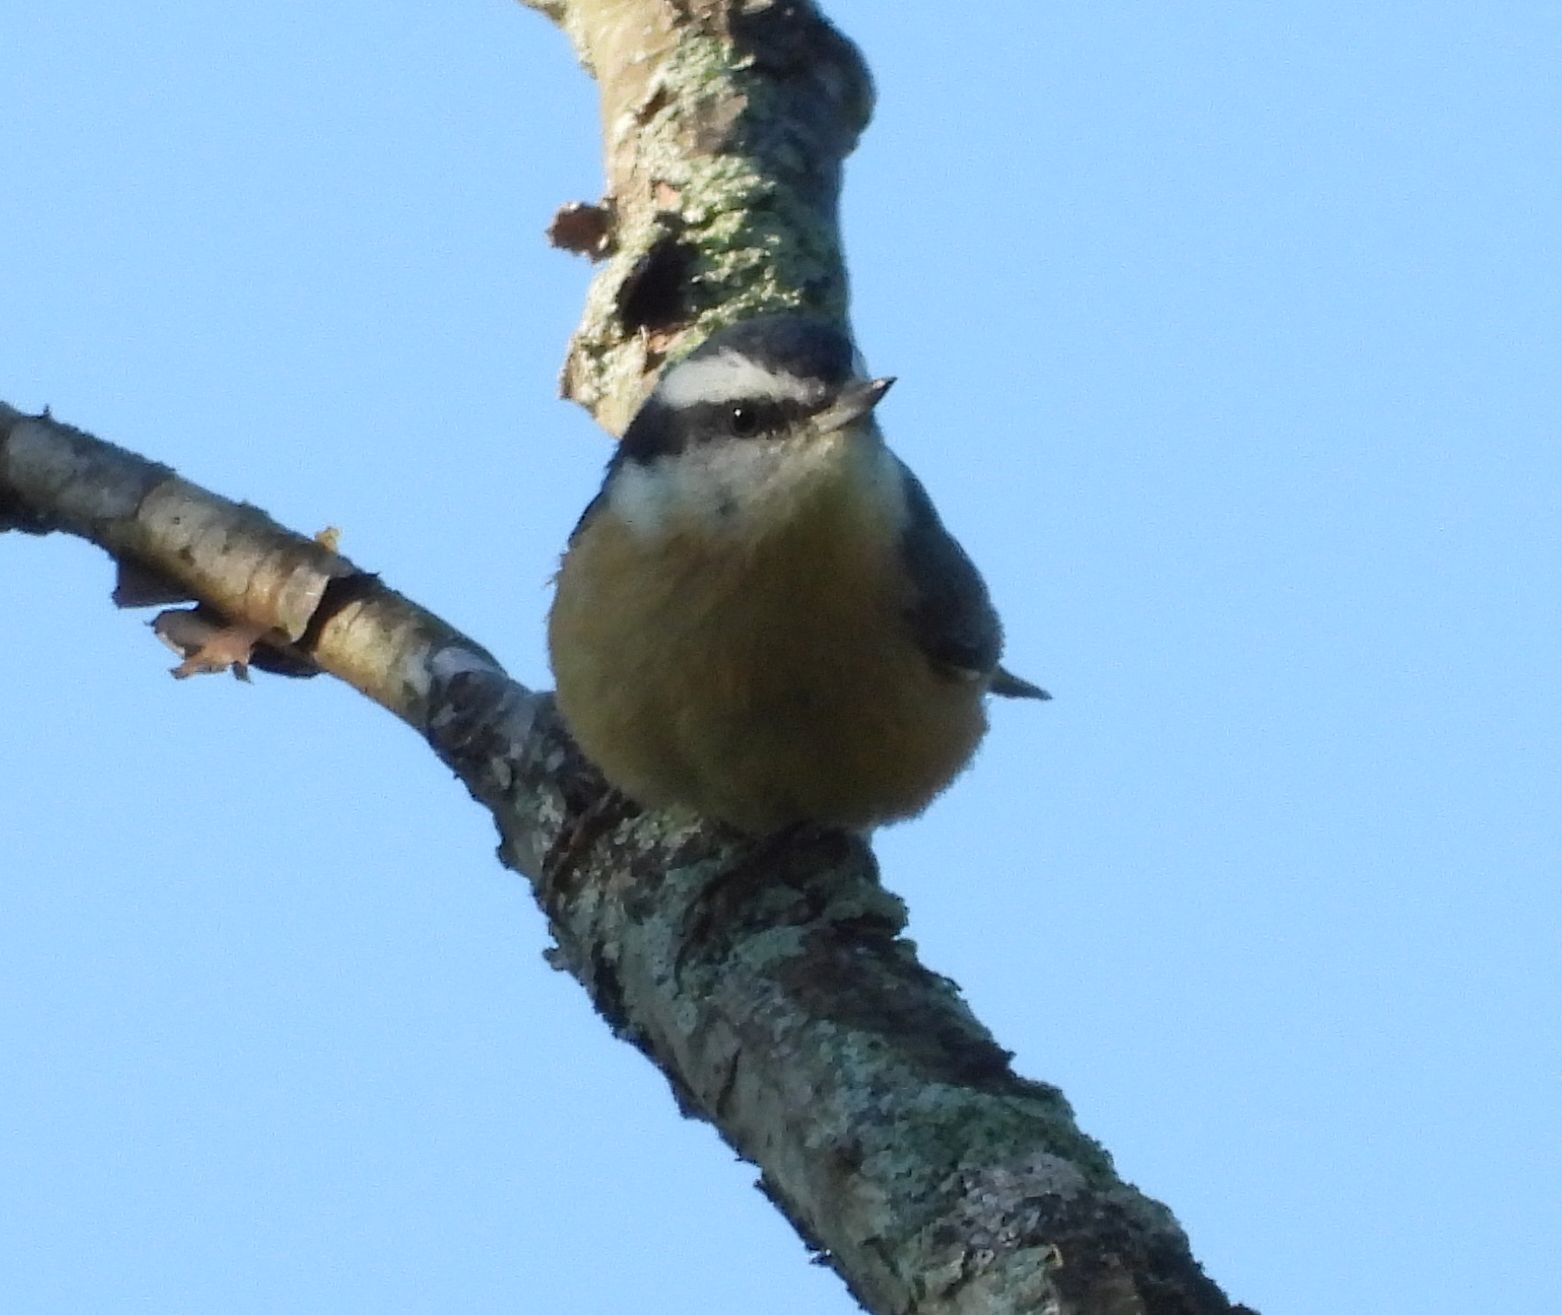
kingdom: Animalia
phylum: Chordata
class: Aves
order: Passeriformes
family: Sittidae
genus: Sitta
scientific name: Sitta canadensis
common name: Red-breasted nuthatch
